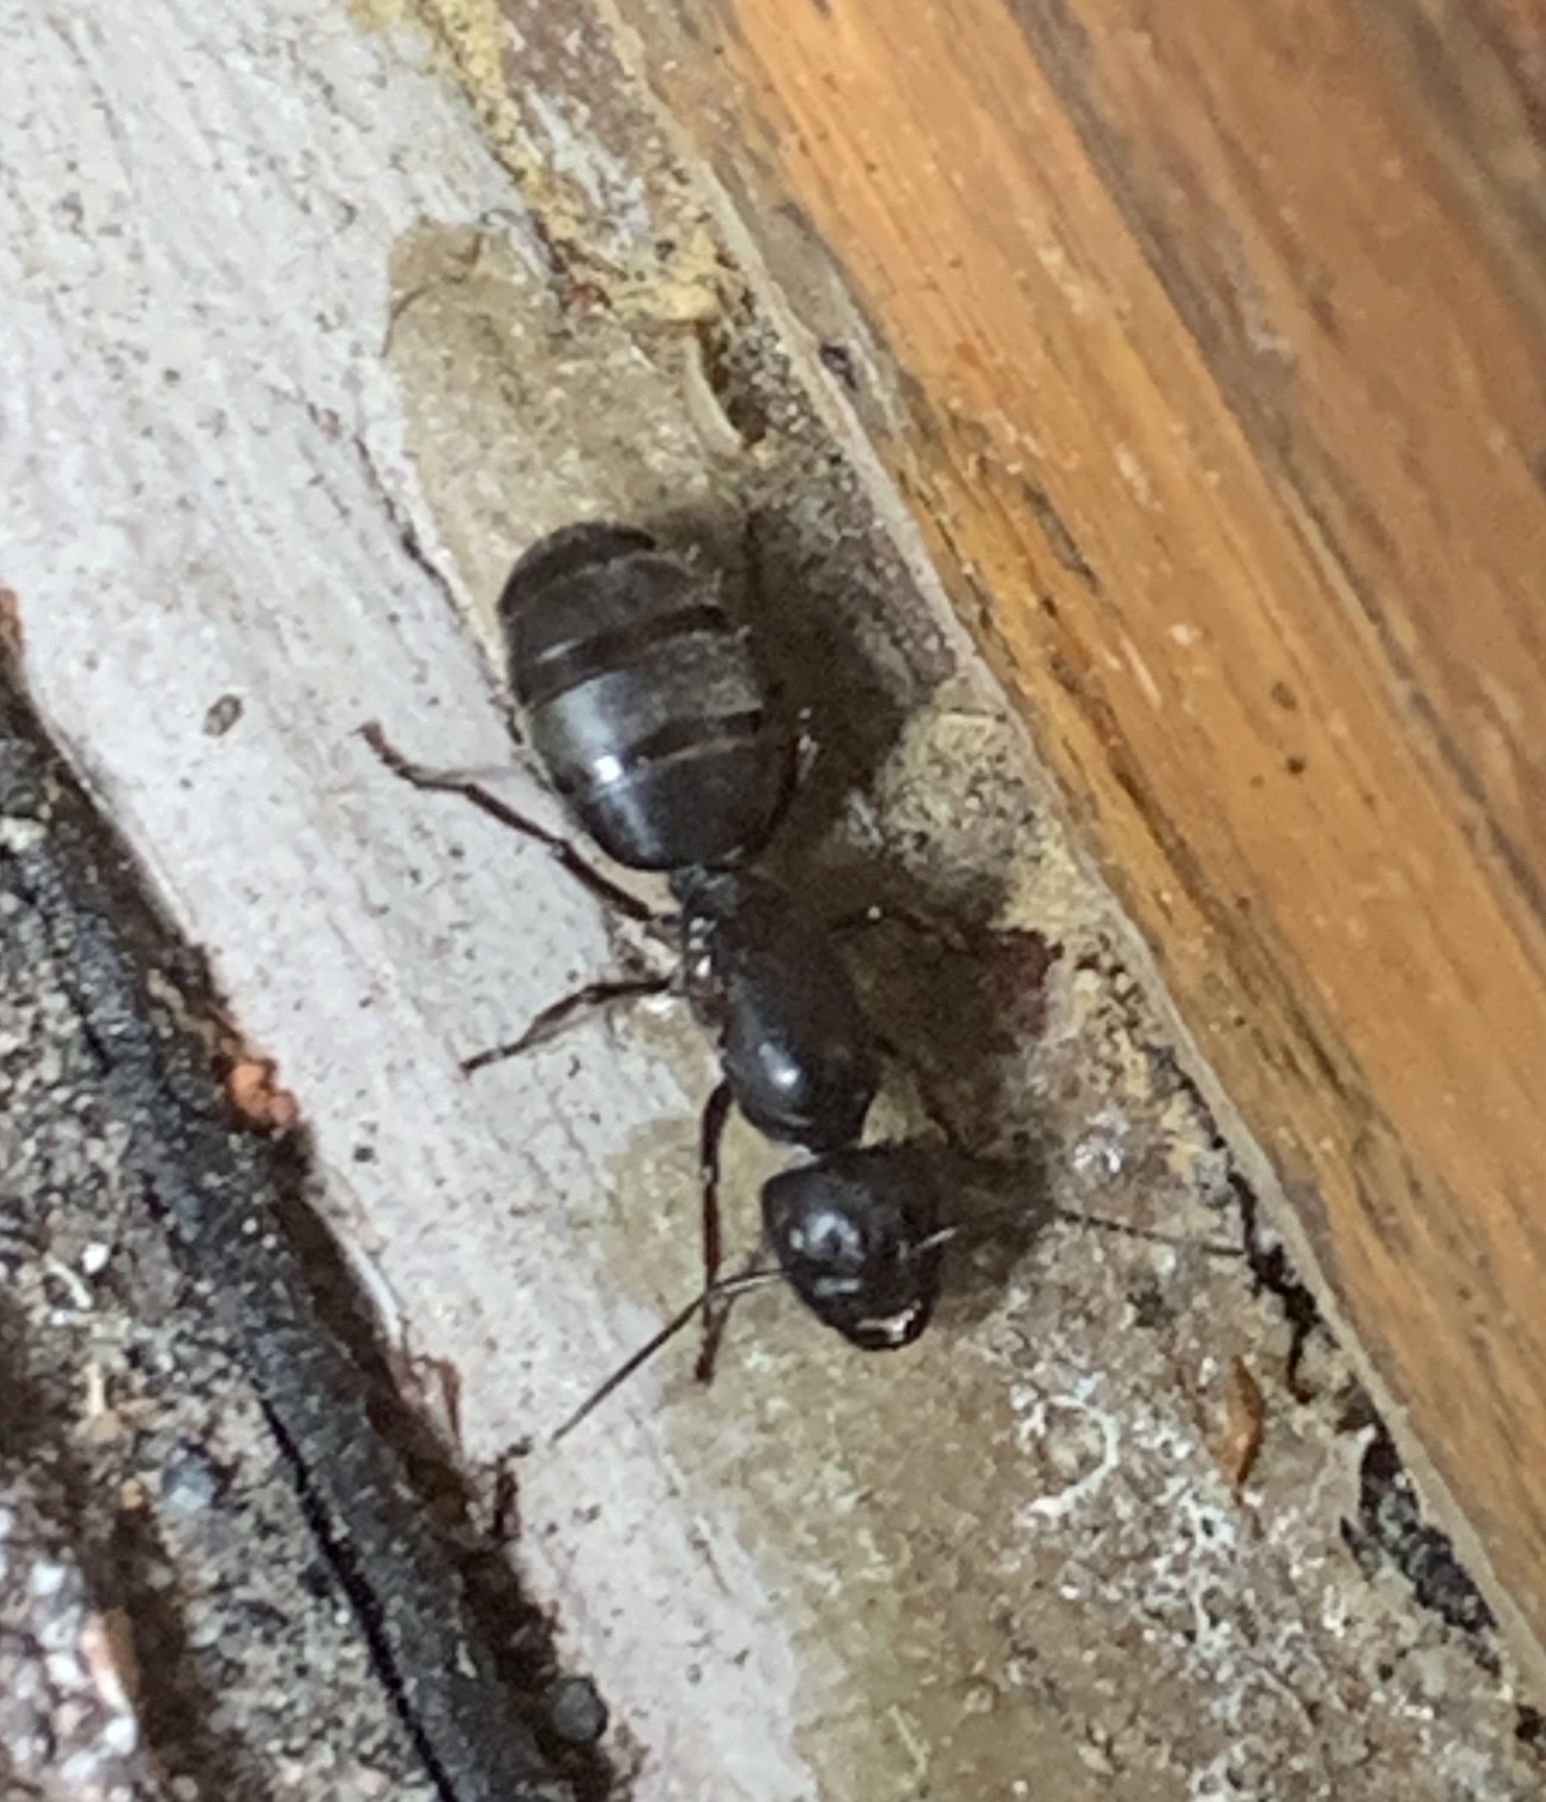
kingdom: Animalia
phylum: Arthropoda
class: Insecta
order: Hymenoptera
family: Formicidae
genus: Camponotus
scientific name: Camponotus modoc
